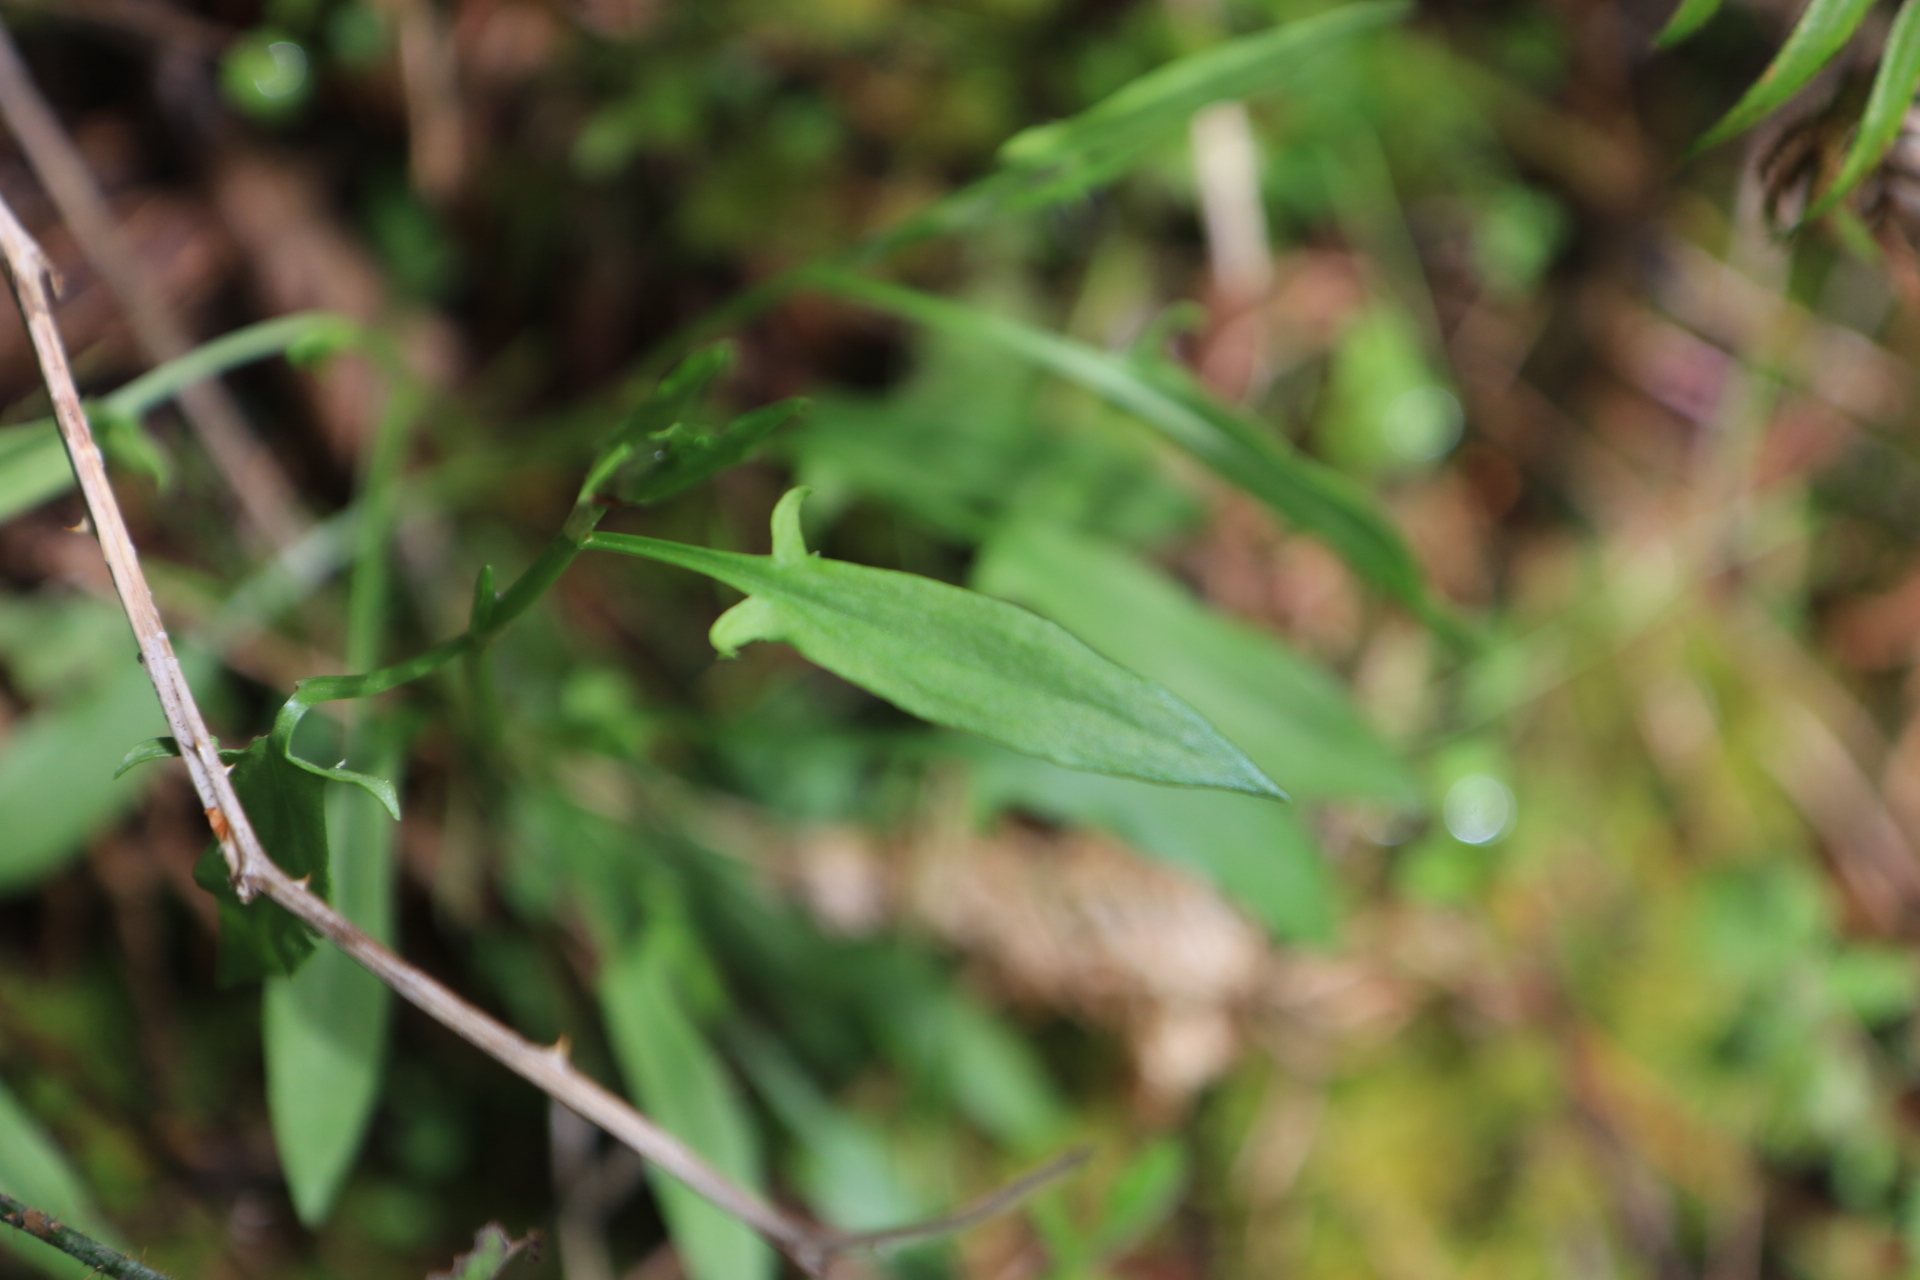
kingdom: Plantae
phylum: Tracheophyta
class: Magnoliopsida
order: Caryophyllales
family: Polygonaceae
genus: Rumex
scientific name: Rumex acetosella
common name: Common sheep sorrel
